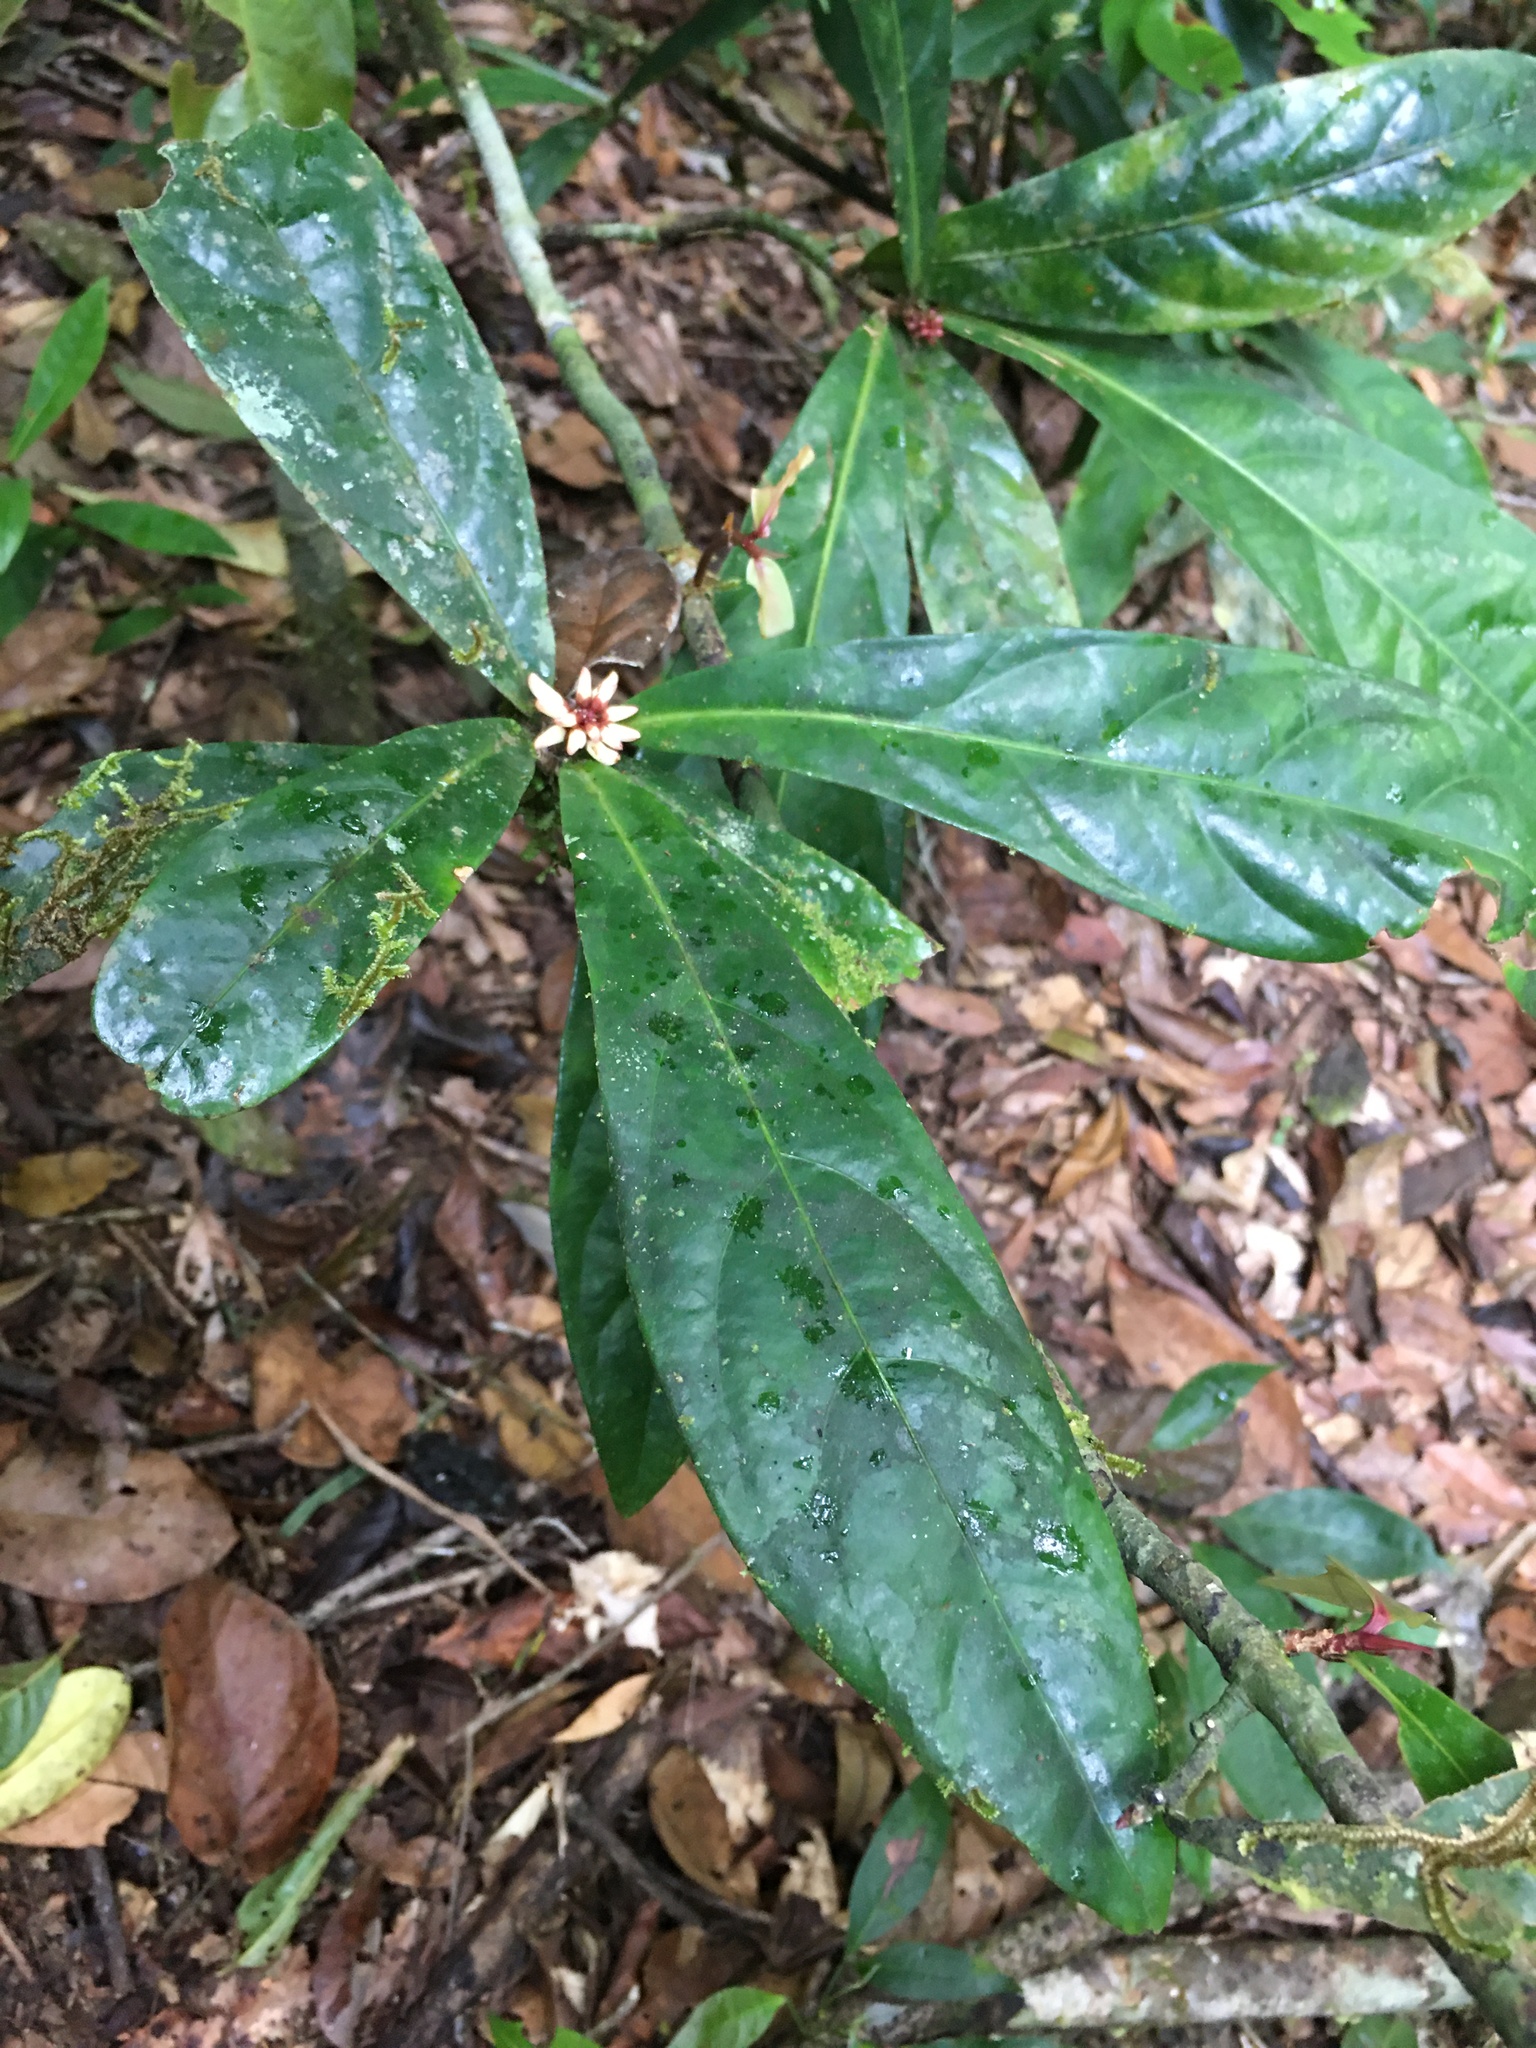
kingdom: Plantae
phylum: Tracheophyta
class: Magnoliopsida
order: Malpighiales
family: Violaceae
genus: Paypayrola
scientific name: Paypayrola blanchetiana
